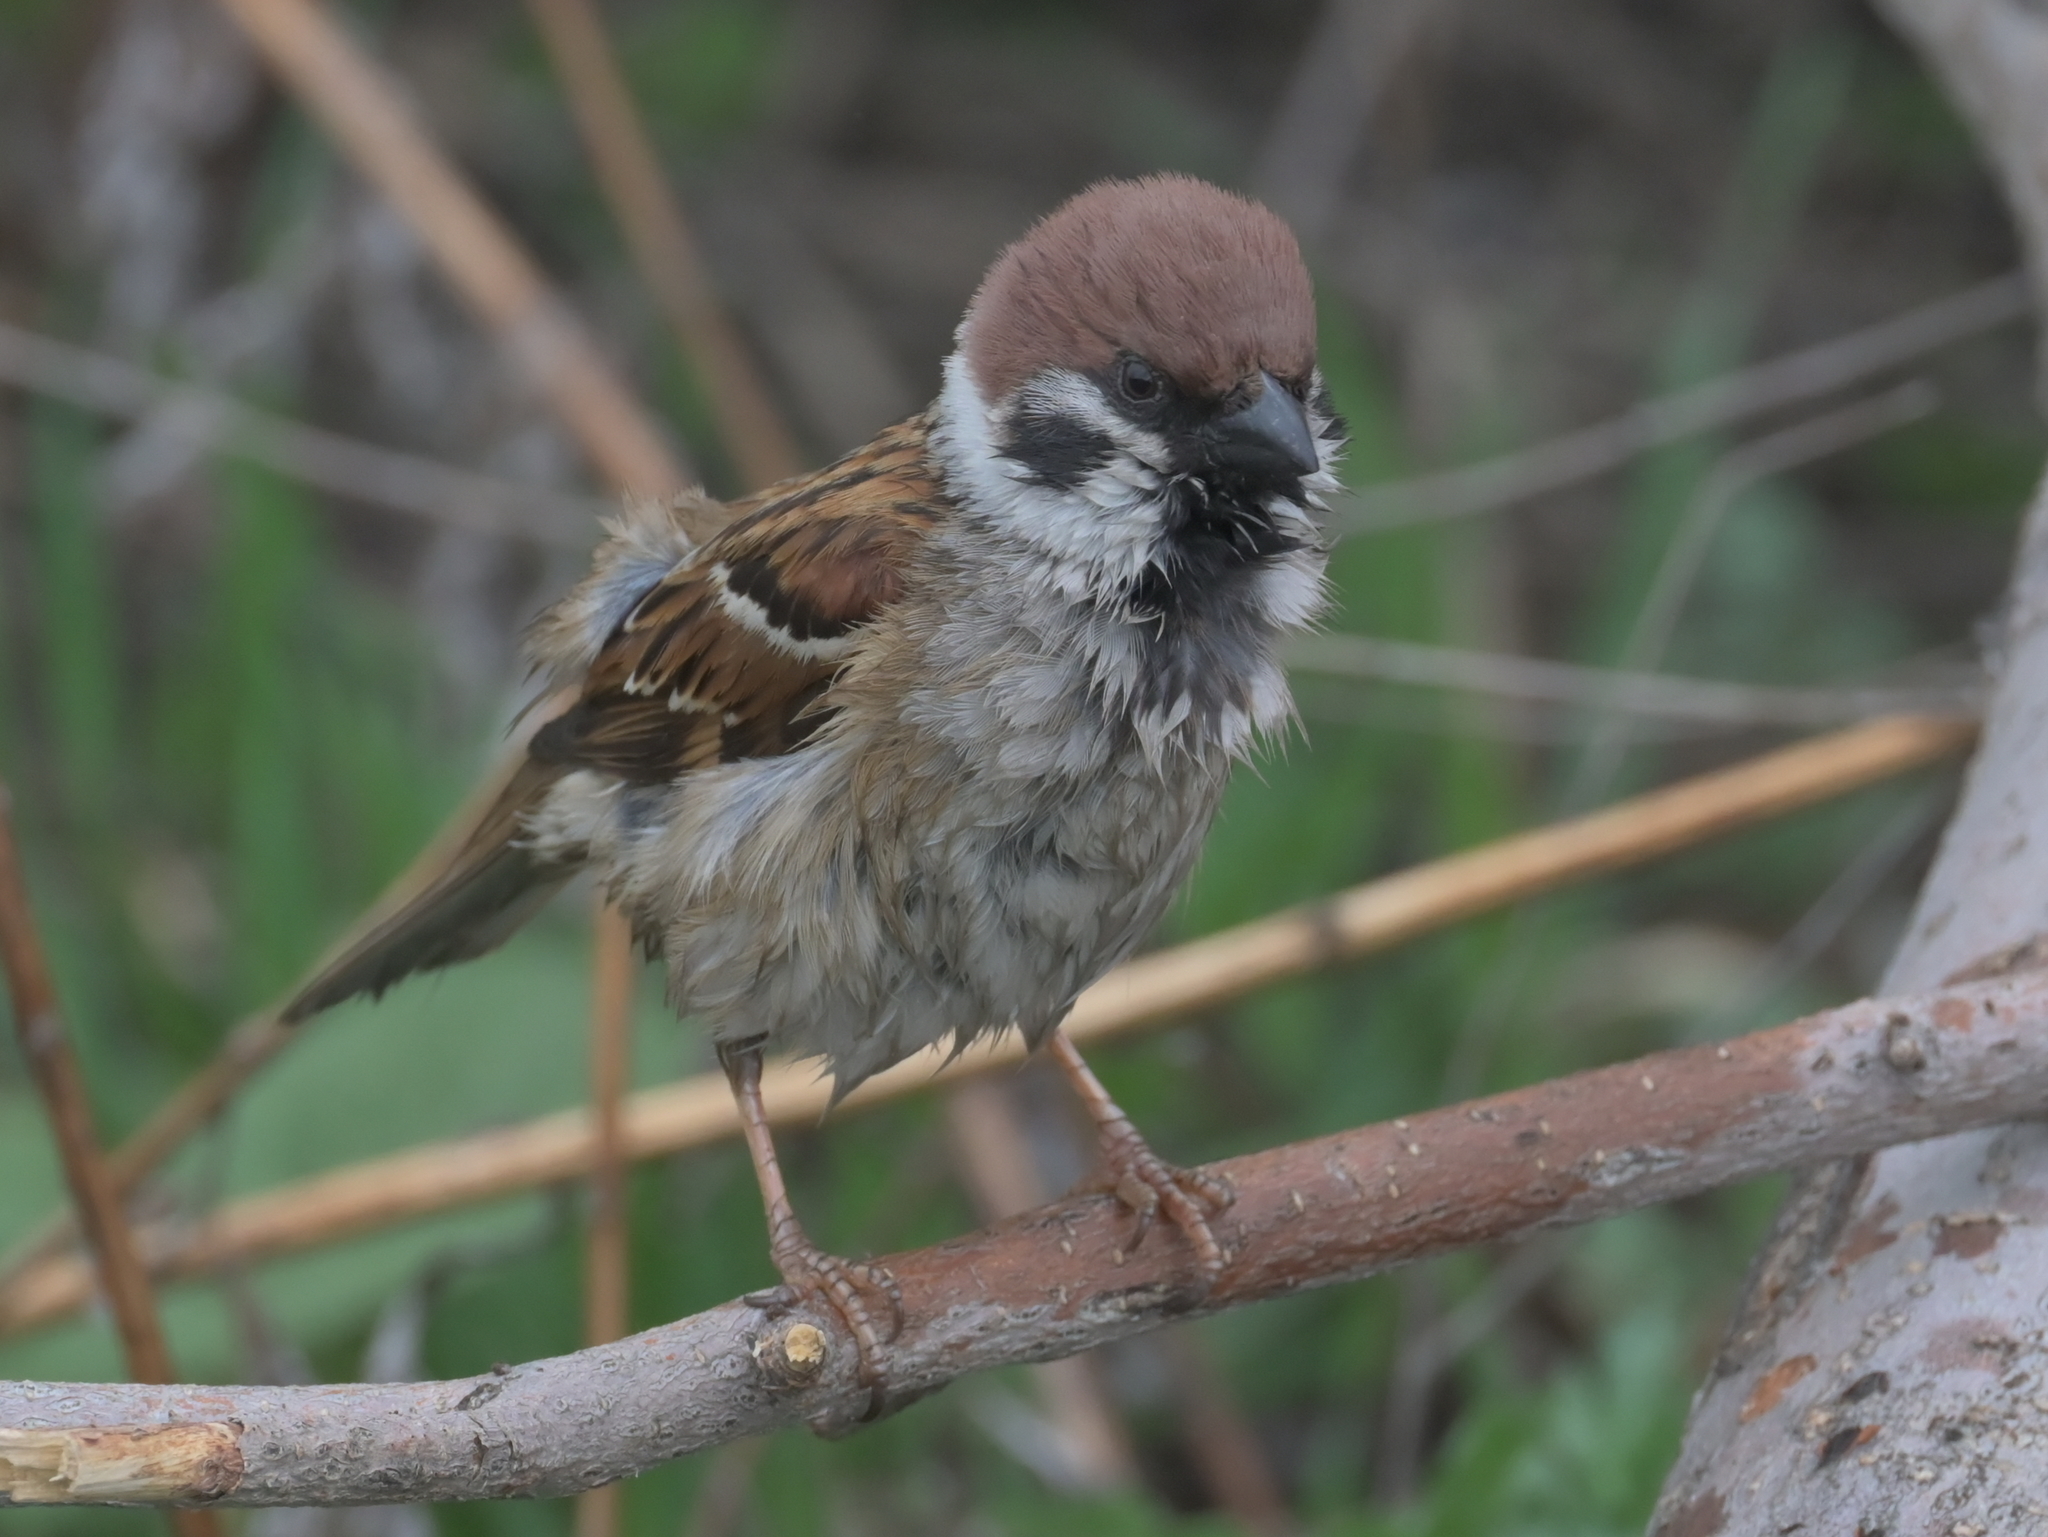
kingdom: Animalia
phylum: Chordata
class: Aves
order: Passeriformes
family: Passeridae
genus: Passer
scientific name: Passer montanus
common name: Eurasian tree sparrow
